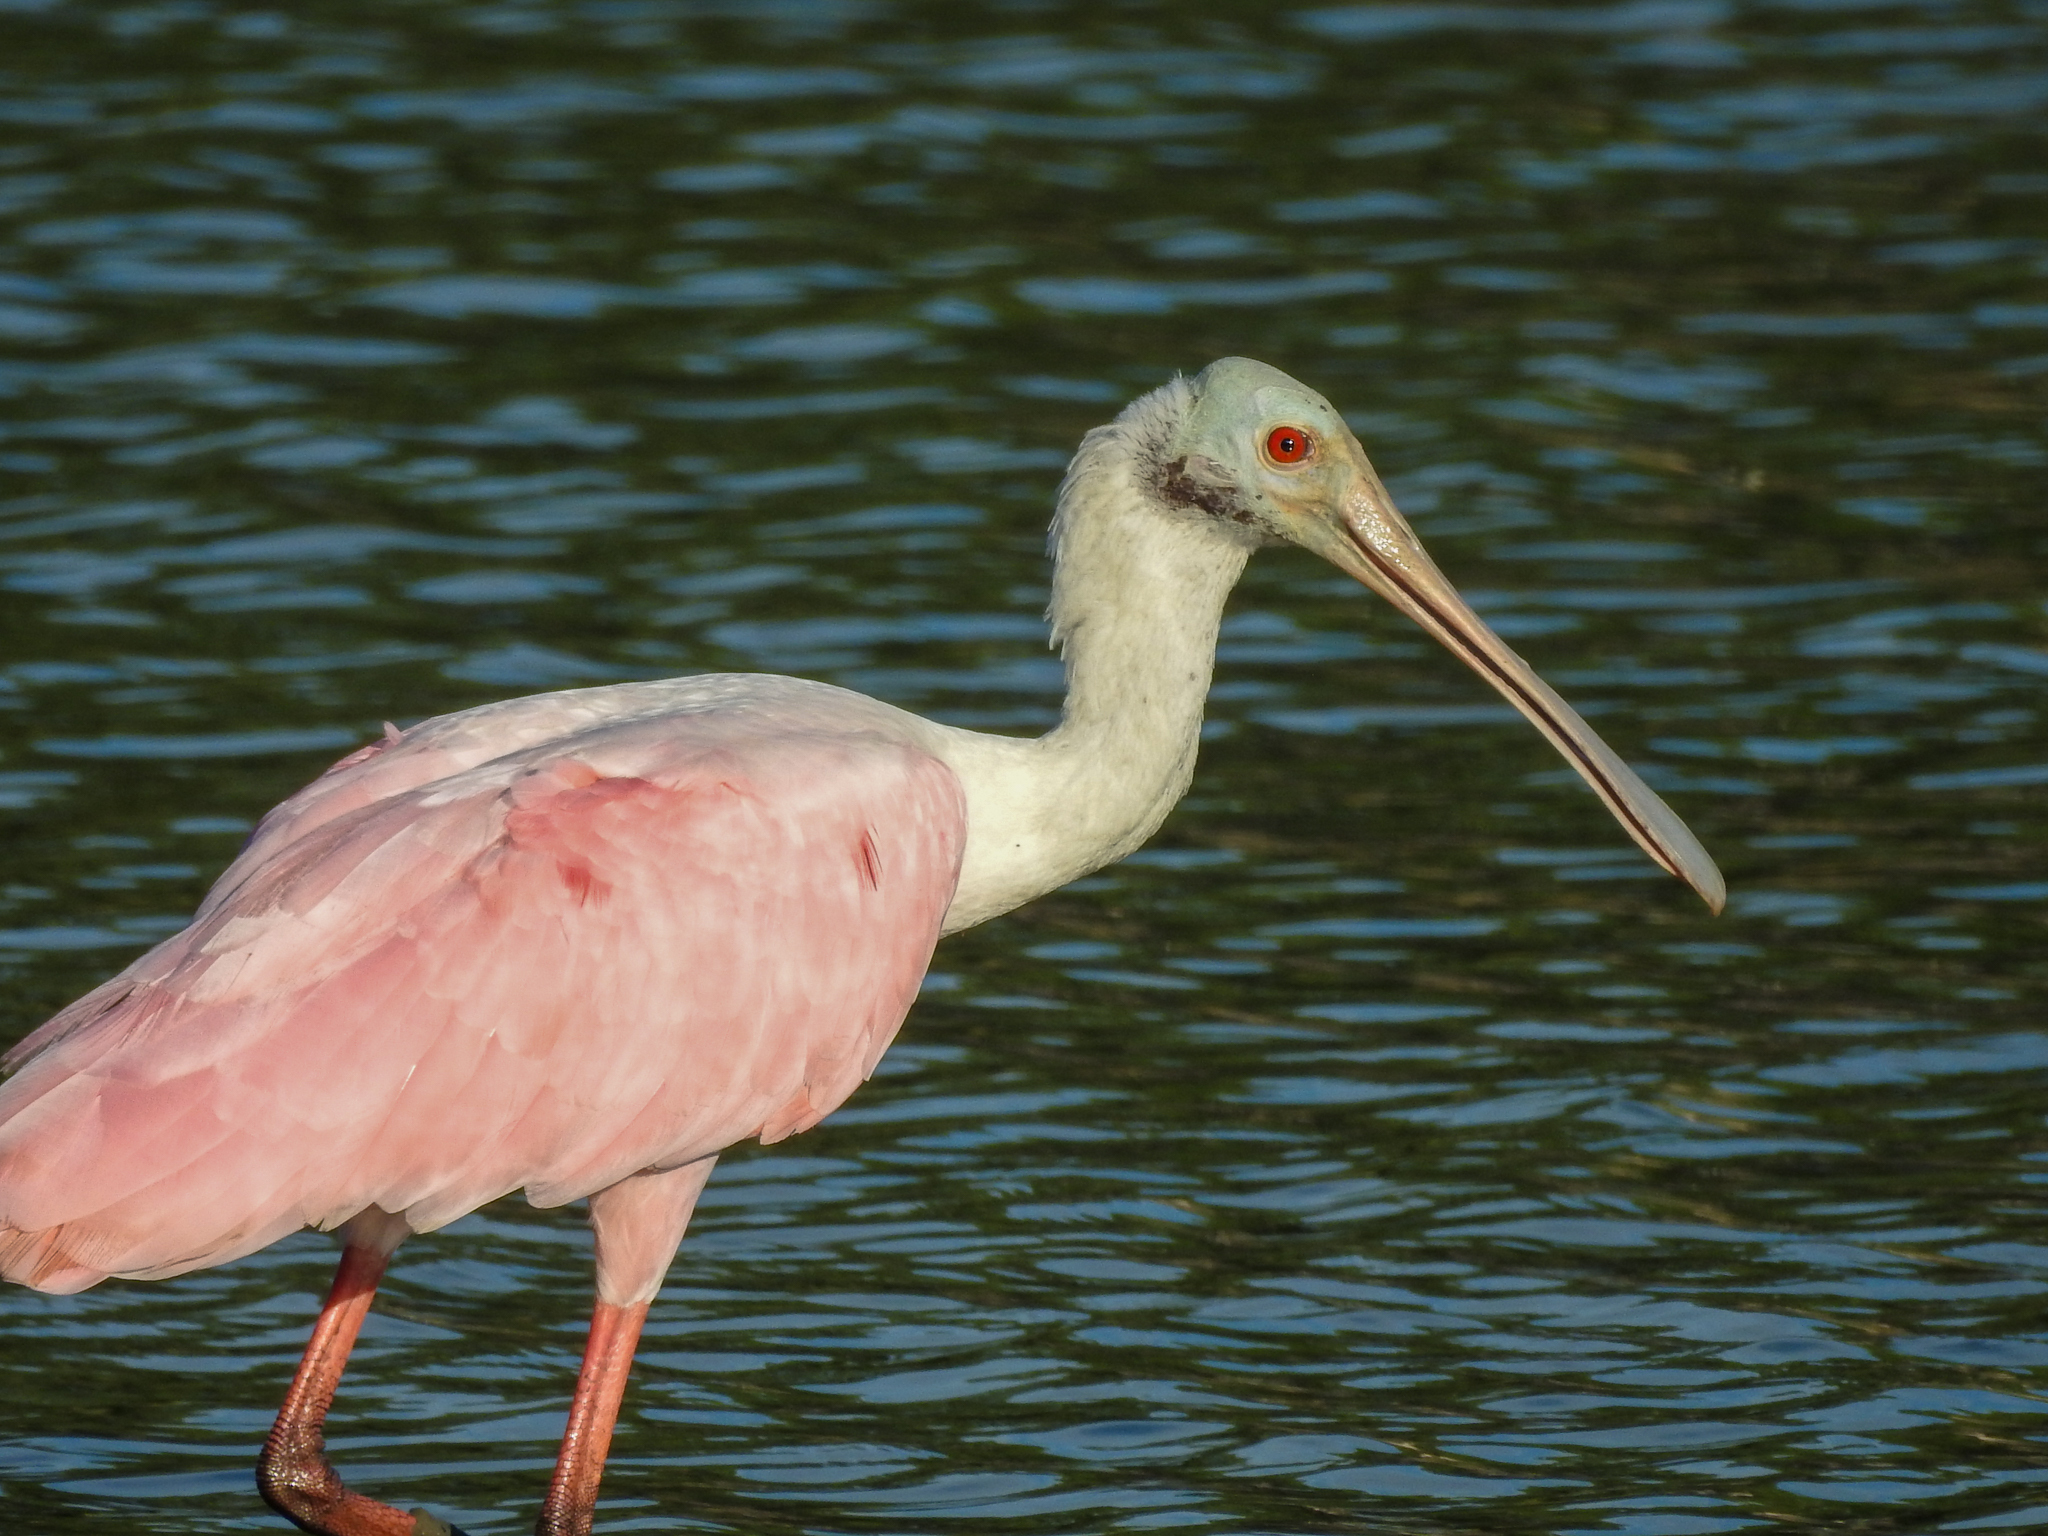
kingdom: Animalia
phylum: Chordata
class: Aves
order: Pelecaniformes
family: Threskiornithidae
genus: Platalea
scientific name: Platalea ajaja
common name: Roseate spoonbill
